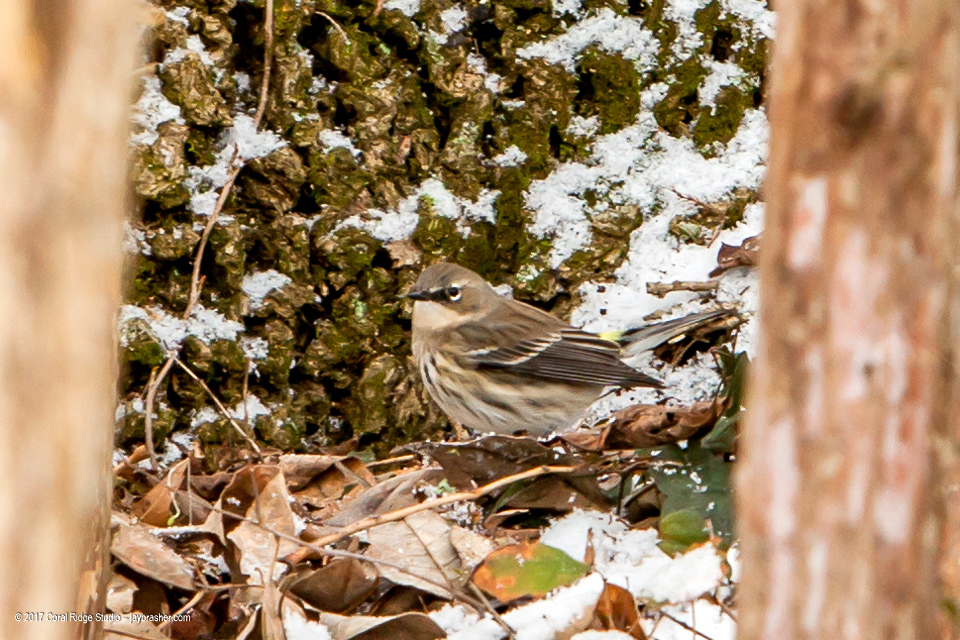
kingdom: Animalia
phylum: Chordata
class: Aves
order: Passeriformes
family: Parulidae
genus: Setophaga
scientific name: Setophaga coronata
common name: Myrtle warbler
